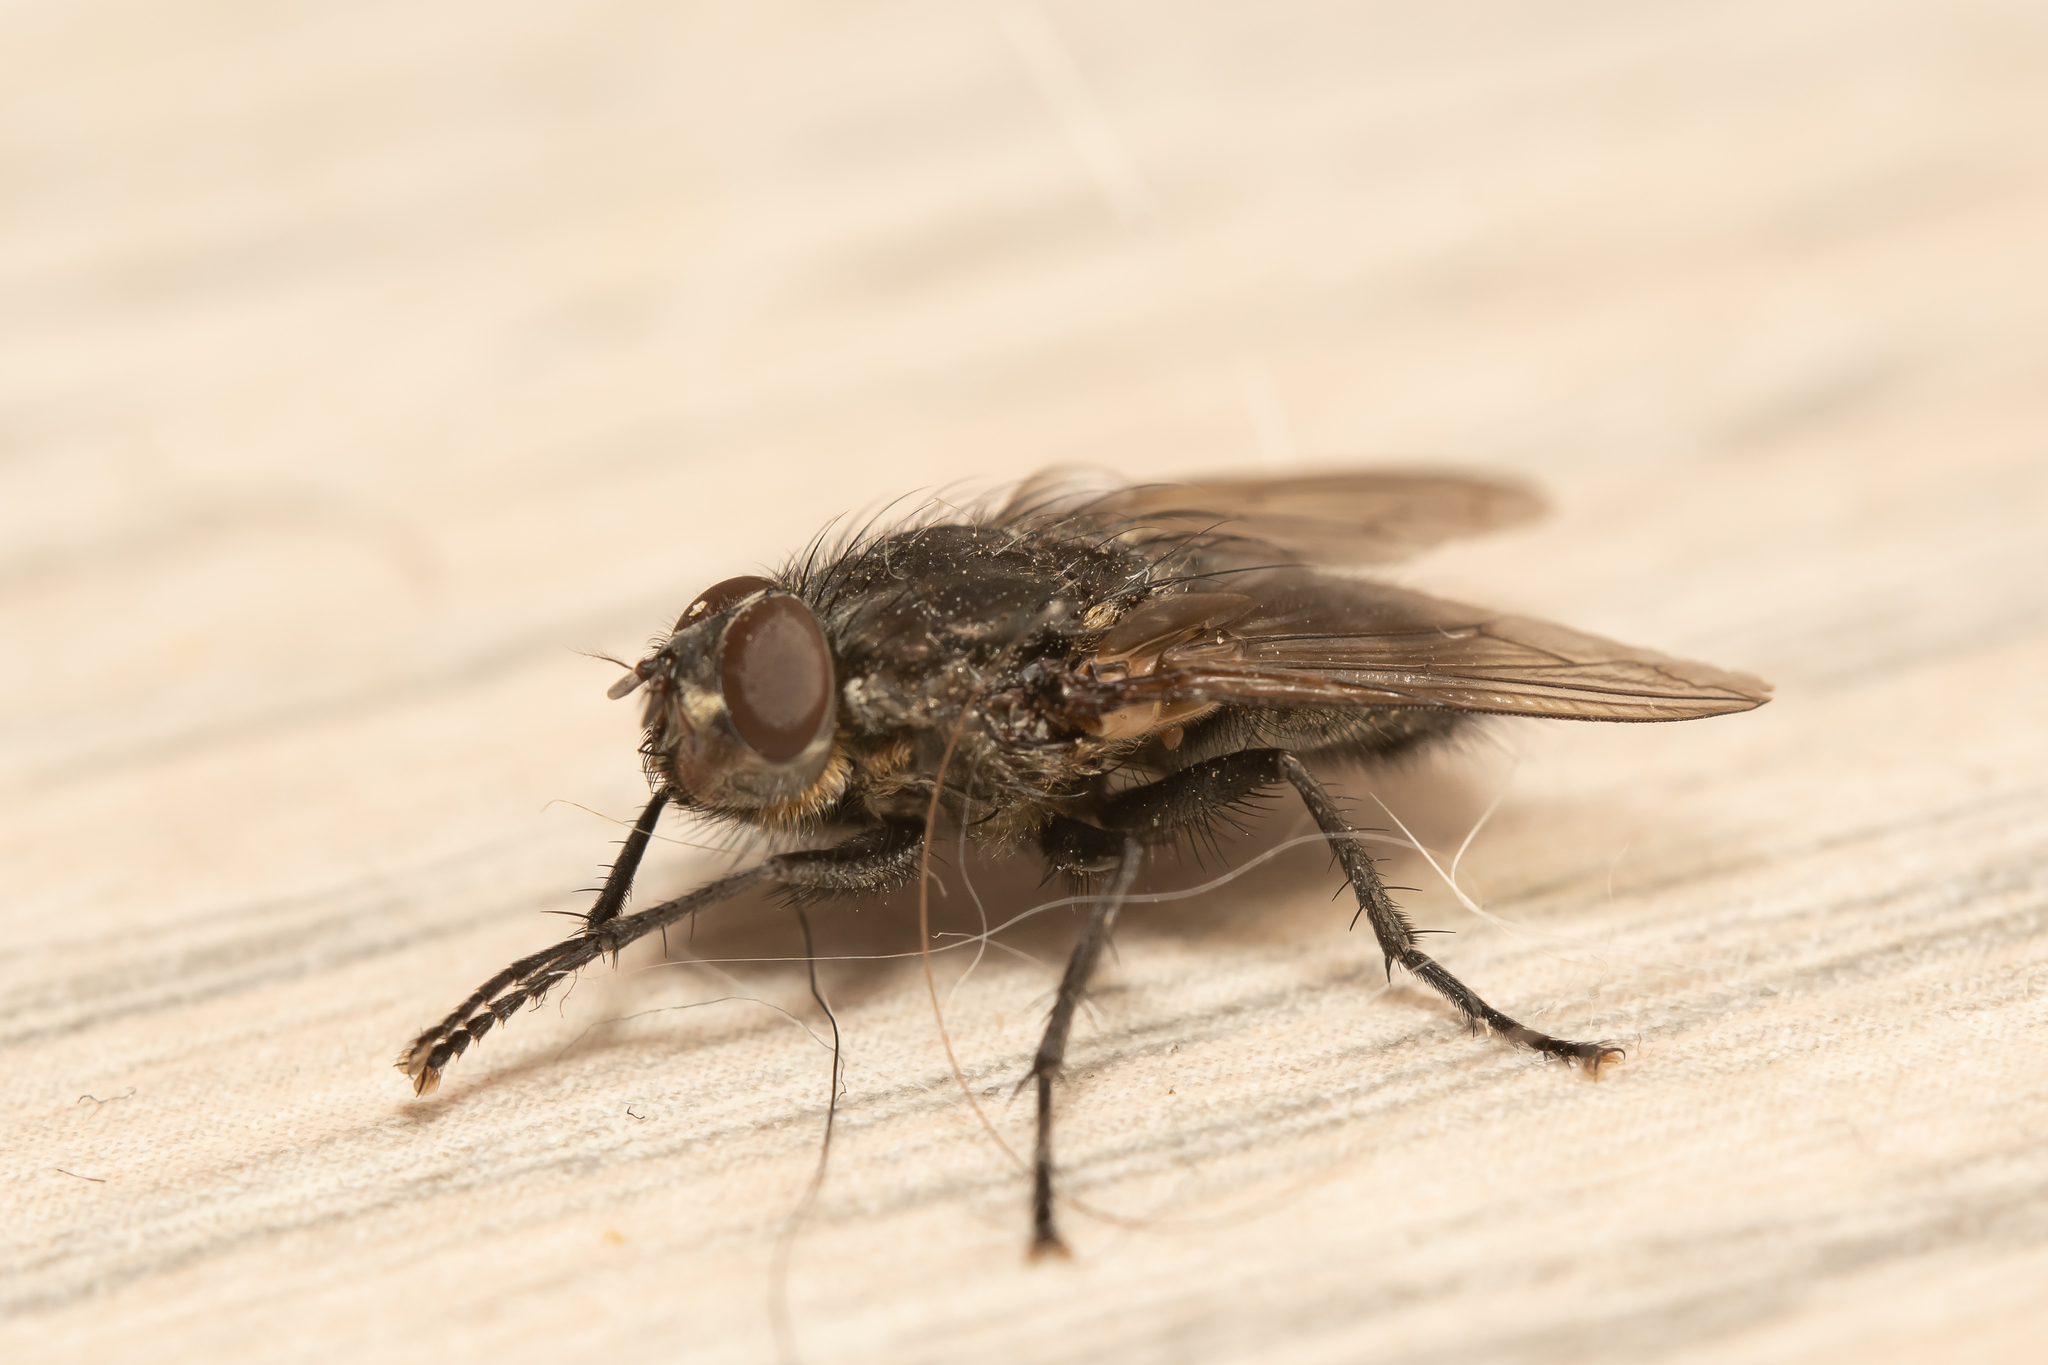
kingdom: Animalia
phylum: Arthropoda
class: Insecta
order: Diptera
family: Polleniidae
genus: Pollenia
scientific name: Pollenia vagabunda
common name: Vagabund cluster fly
